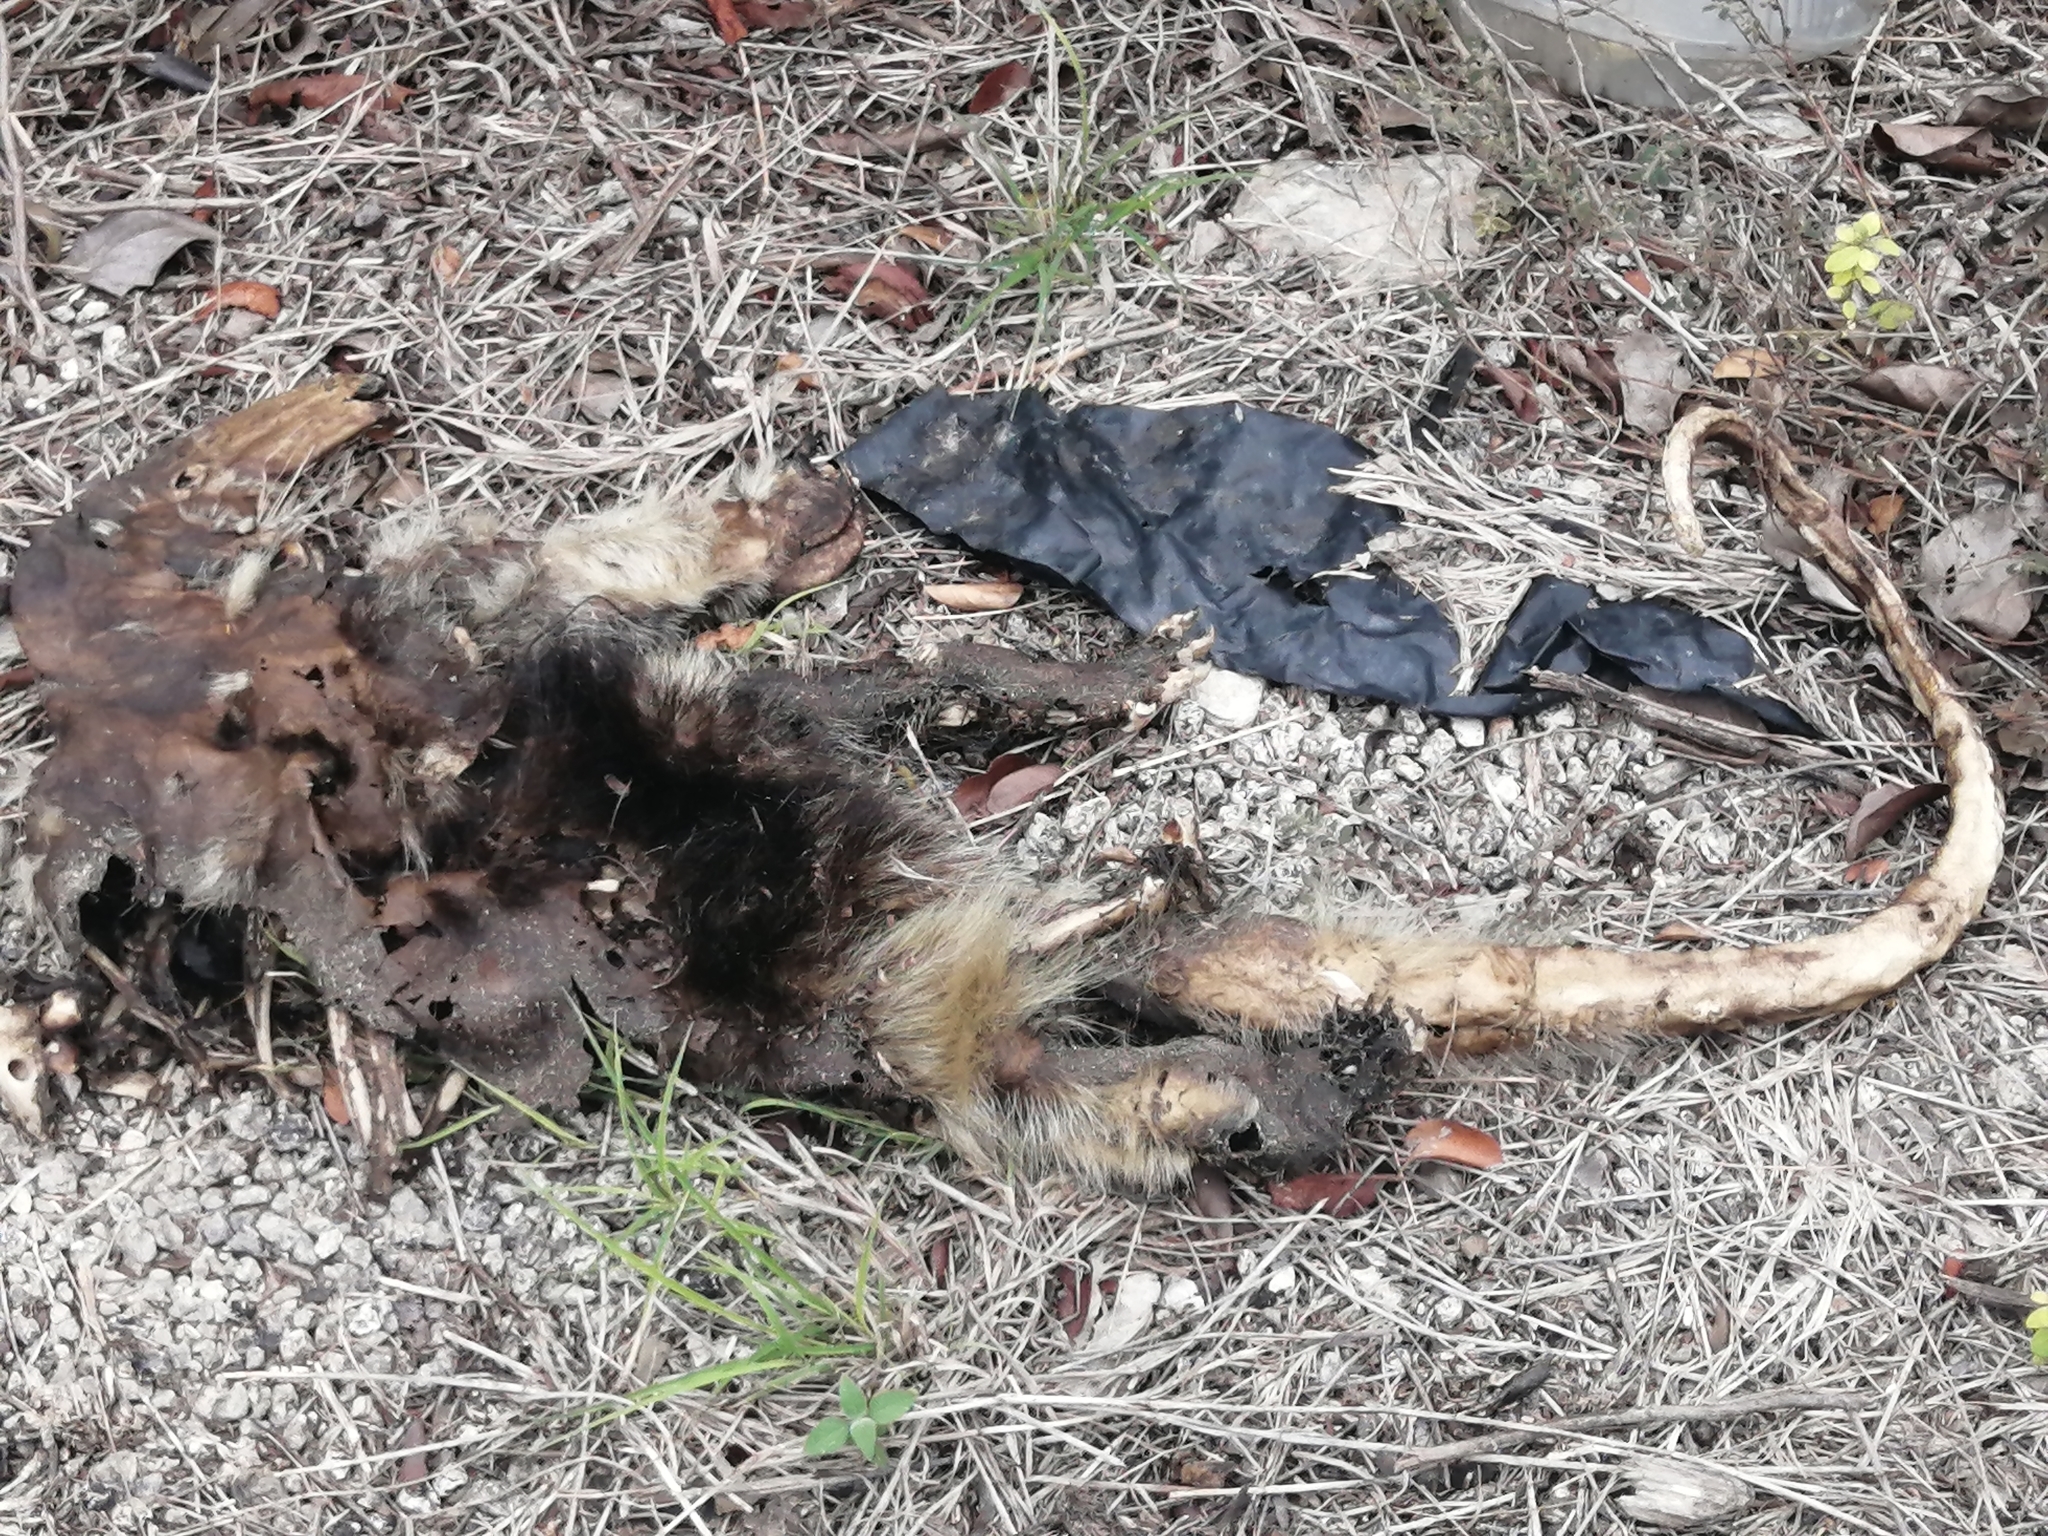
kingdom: Animalia
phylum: Chordata
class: Mammalia
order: Pilosa
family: Myrmecophagidae
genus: Tamandua
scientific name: Tamandua mexicana
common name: Northern tamandua
